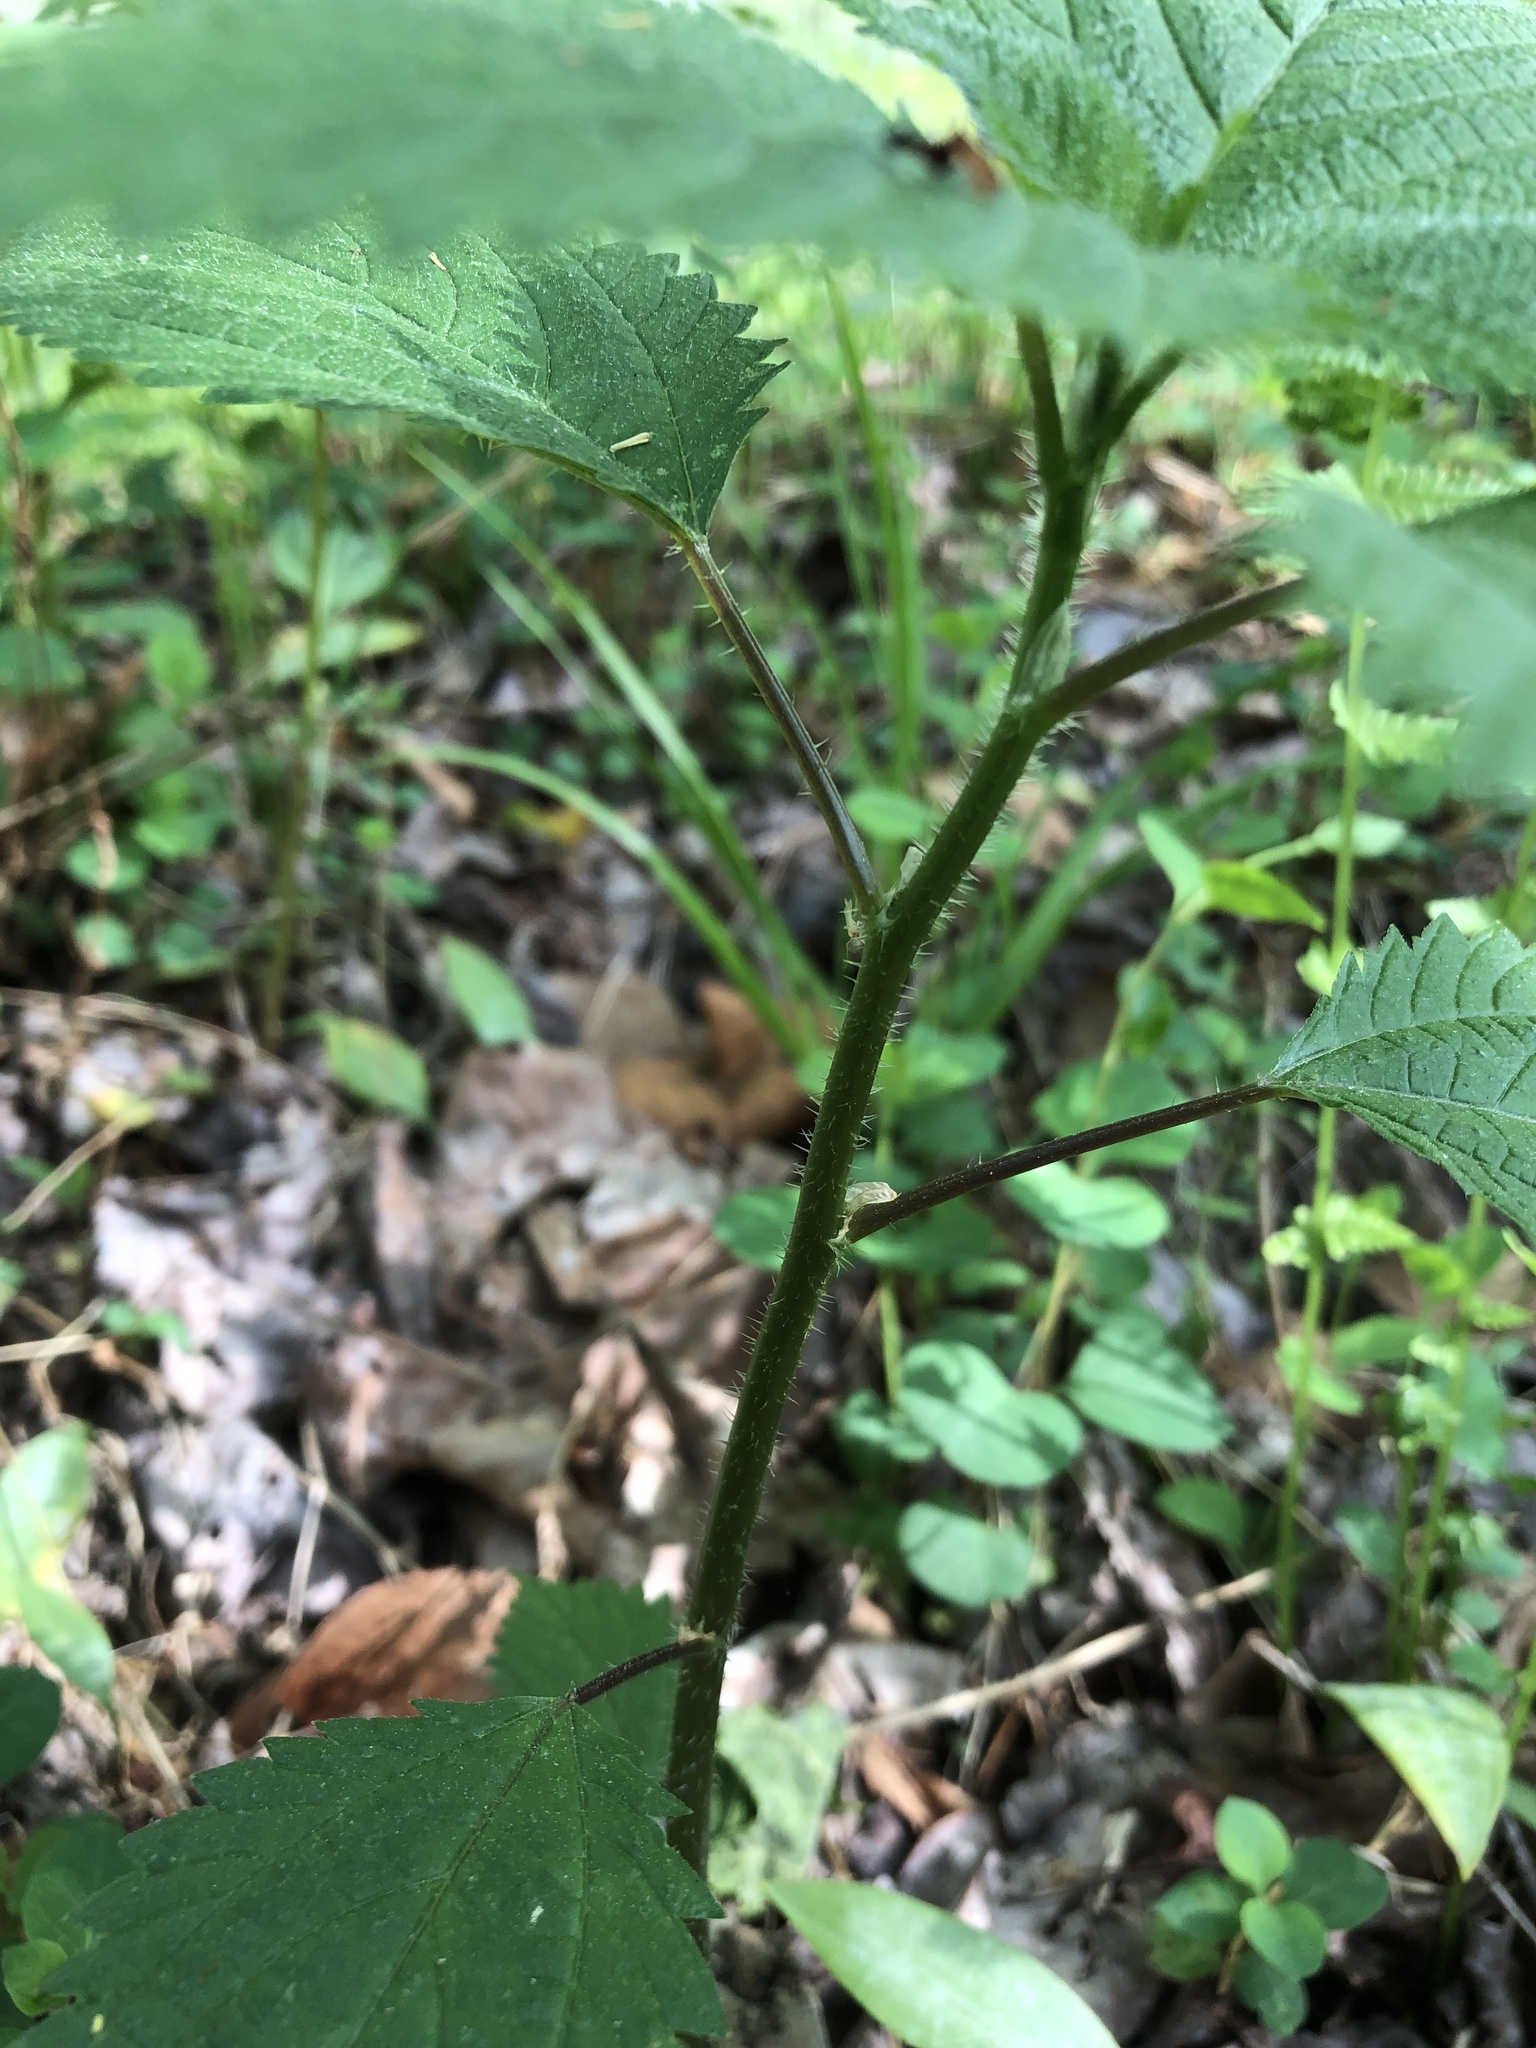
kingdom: Plantae
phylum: Tracheophyta
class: Magnoliopsida
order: Rosales
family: Urticaceae
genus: Laportea
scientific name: Laportea canadensis
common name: Canada nettle
